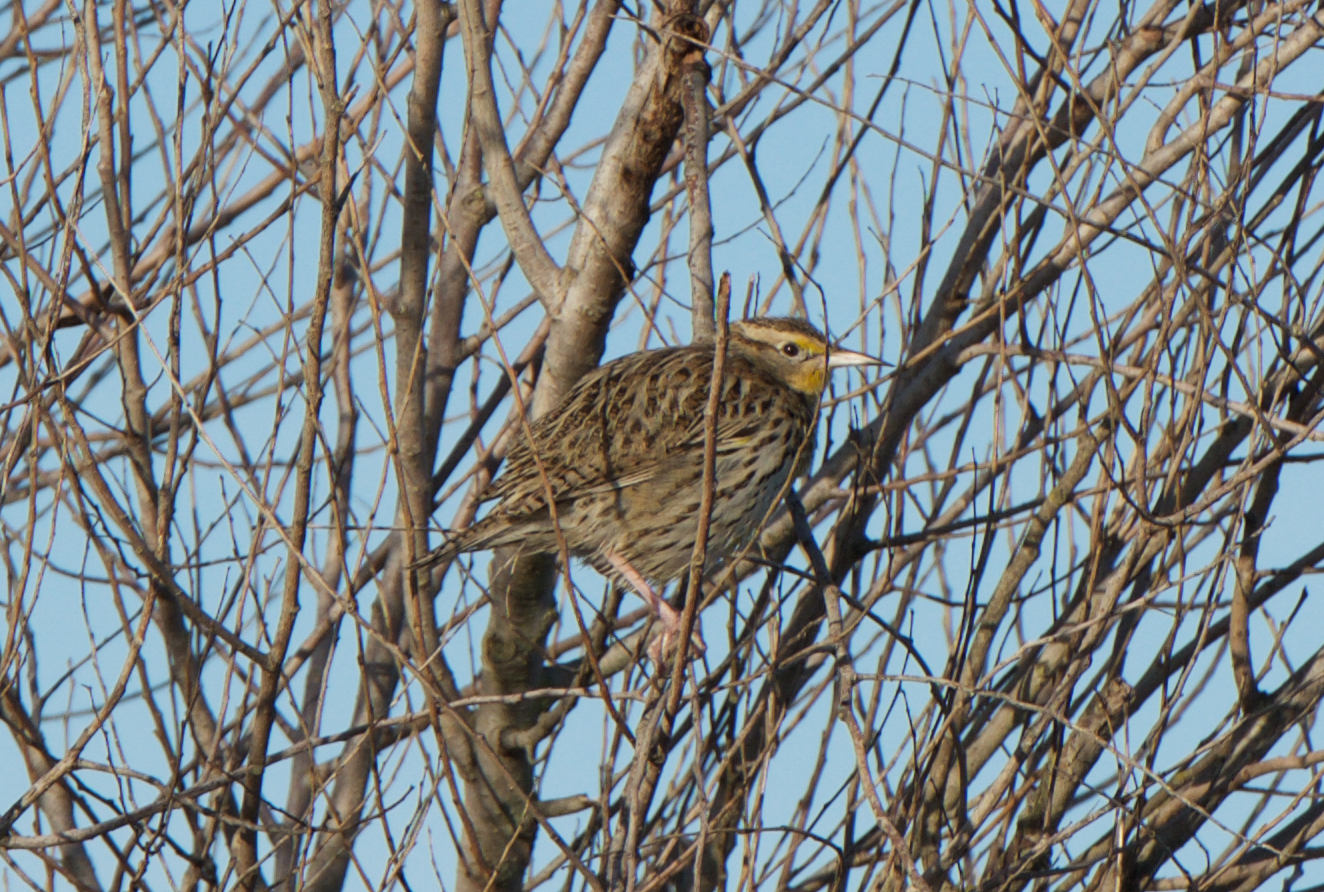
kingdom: Animalia
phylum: Chordata
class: Aves
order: Passeriformes
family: Icteridae
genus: Sturnella
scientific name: Sturnella neglecta
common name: Western meadowlark
